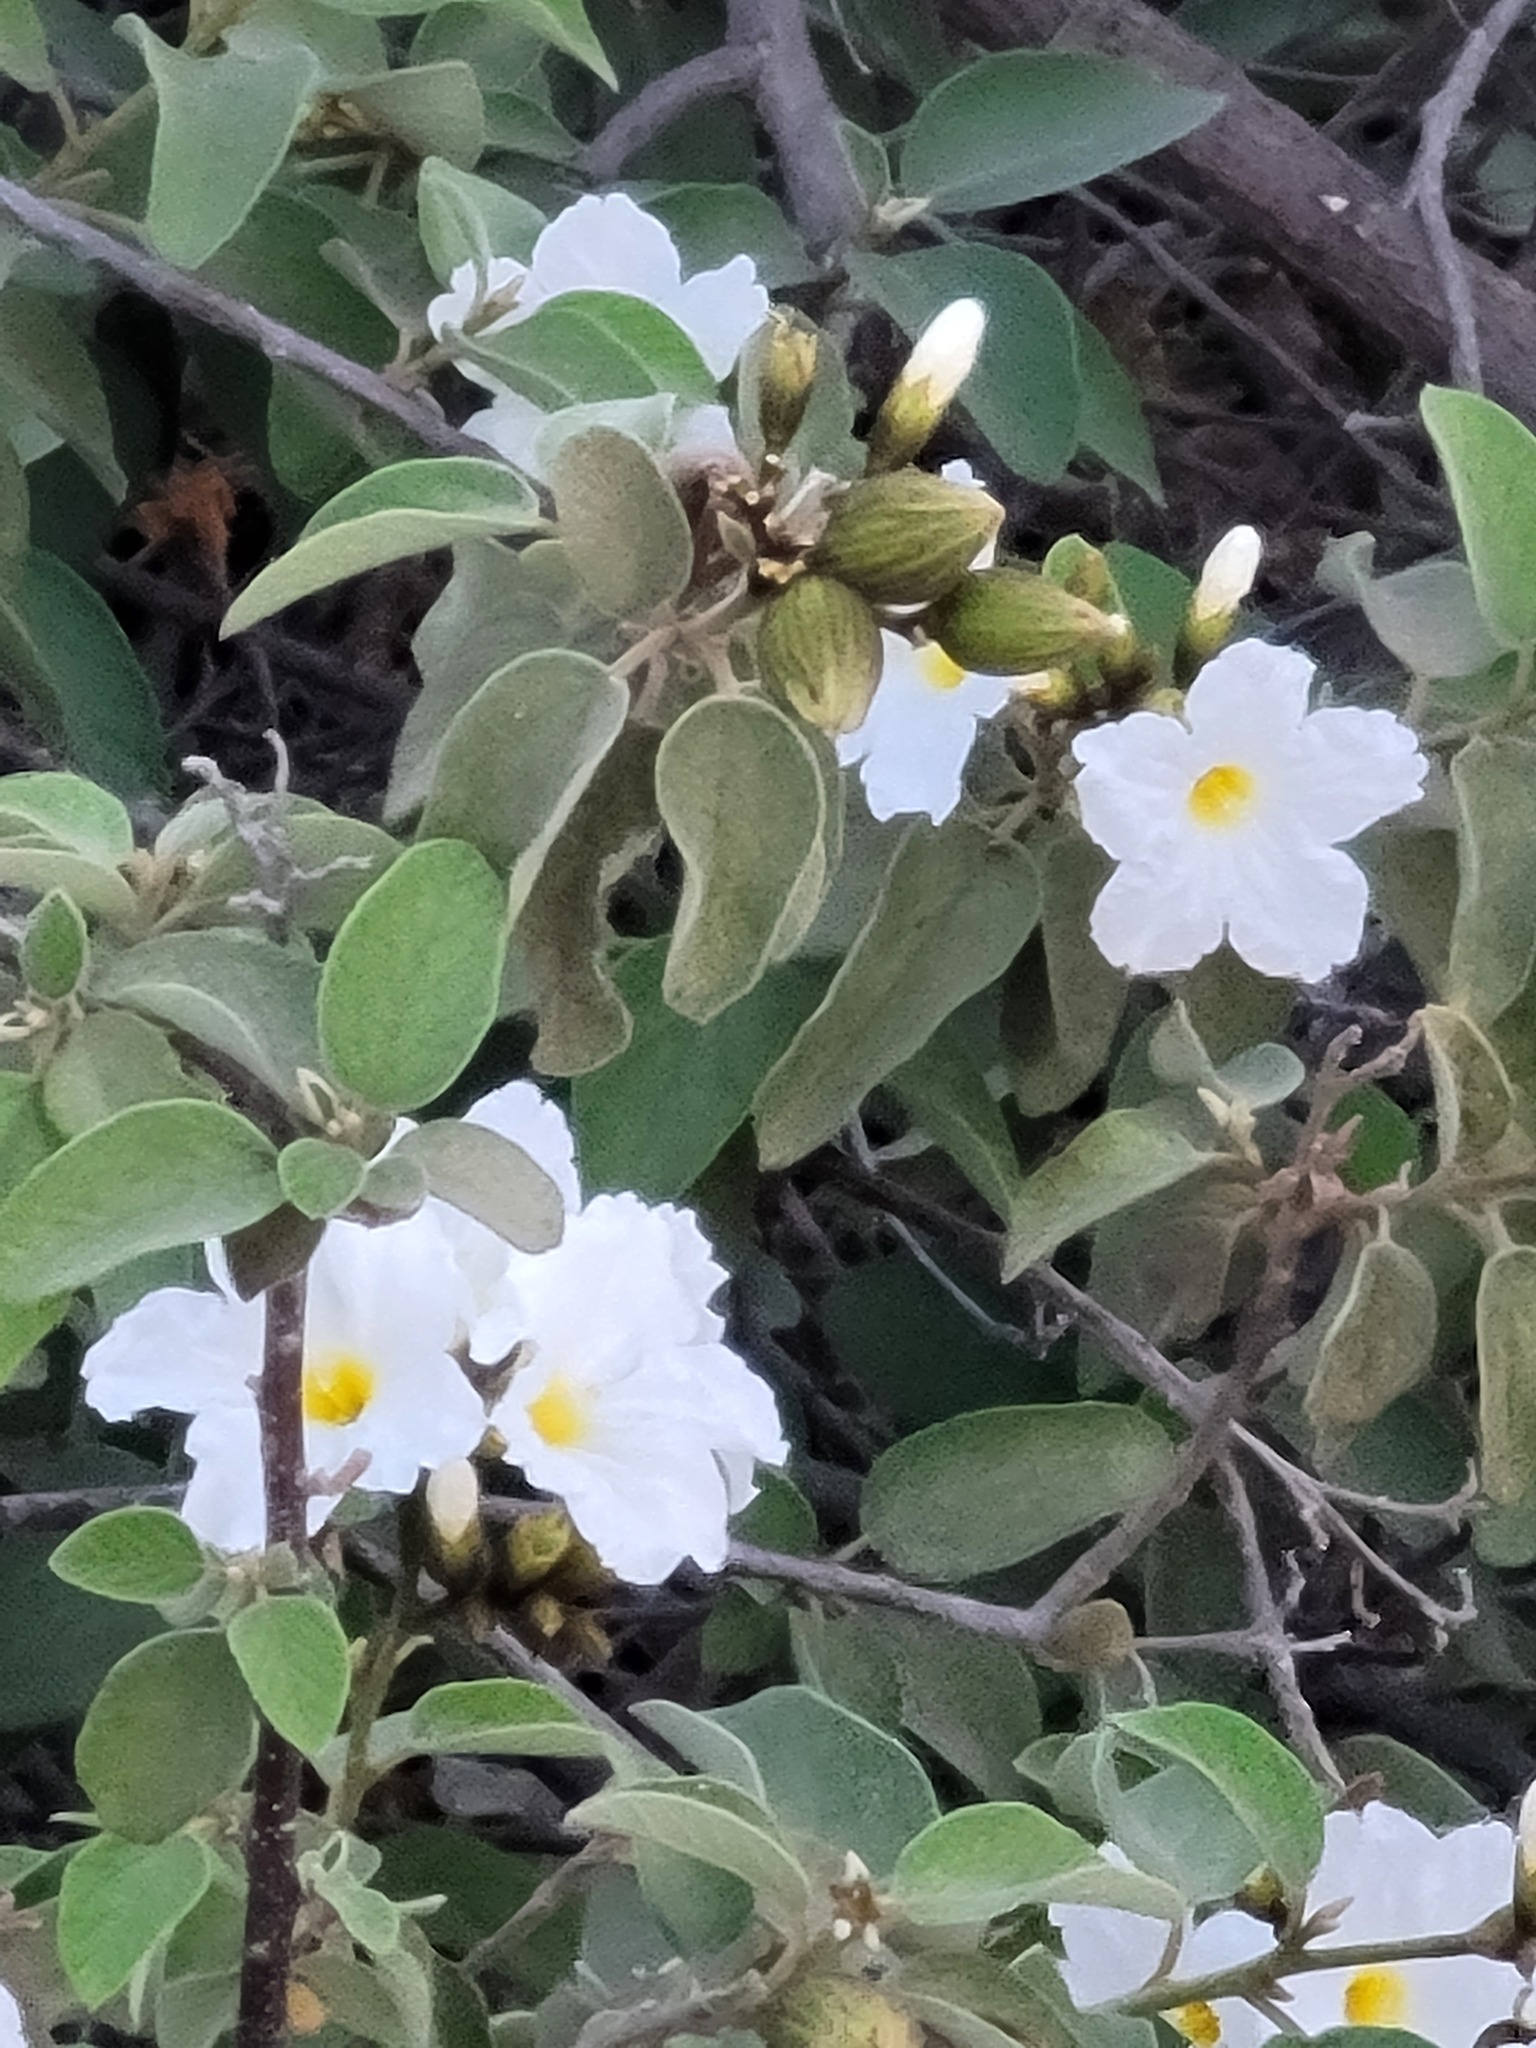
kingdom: Plantae
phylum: Tracheophyta
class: Magnoliopsida
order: Boraginales
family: Cordiaceae
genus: Cordia
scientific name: Cordia boissieri
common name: Mexican-olive
